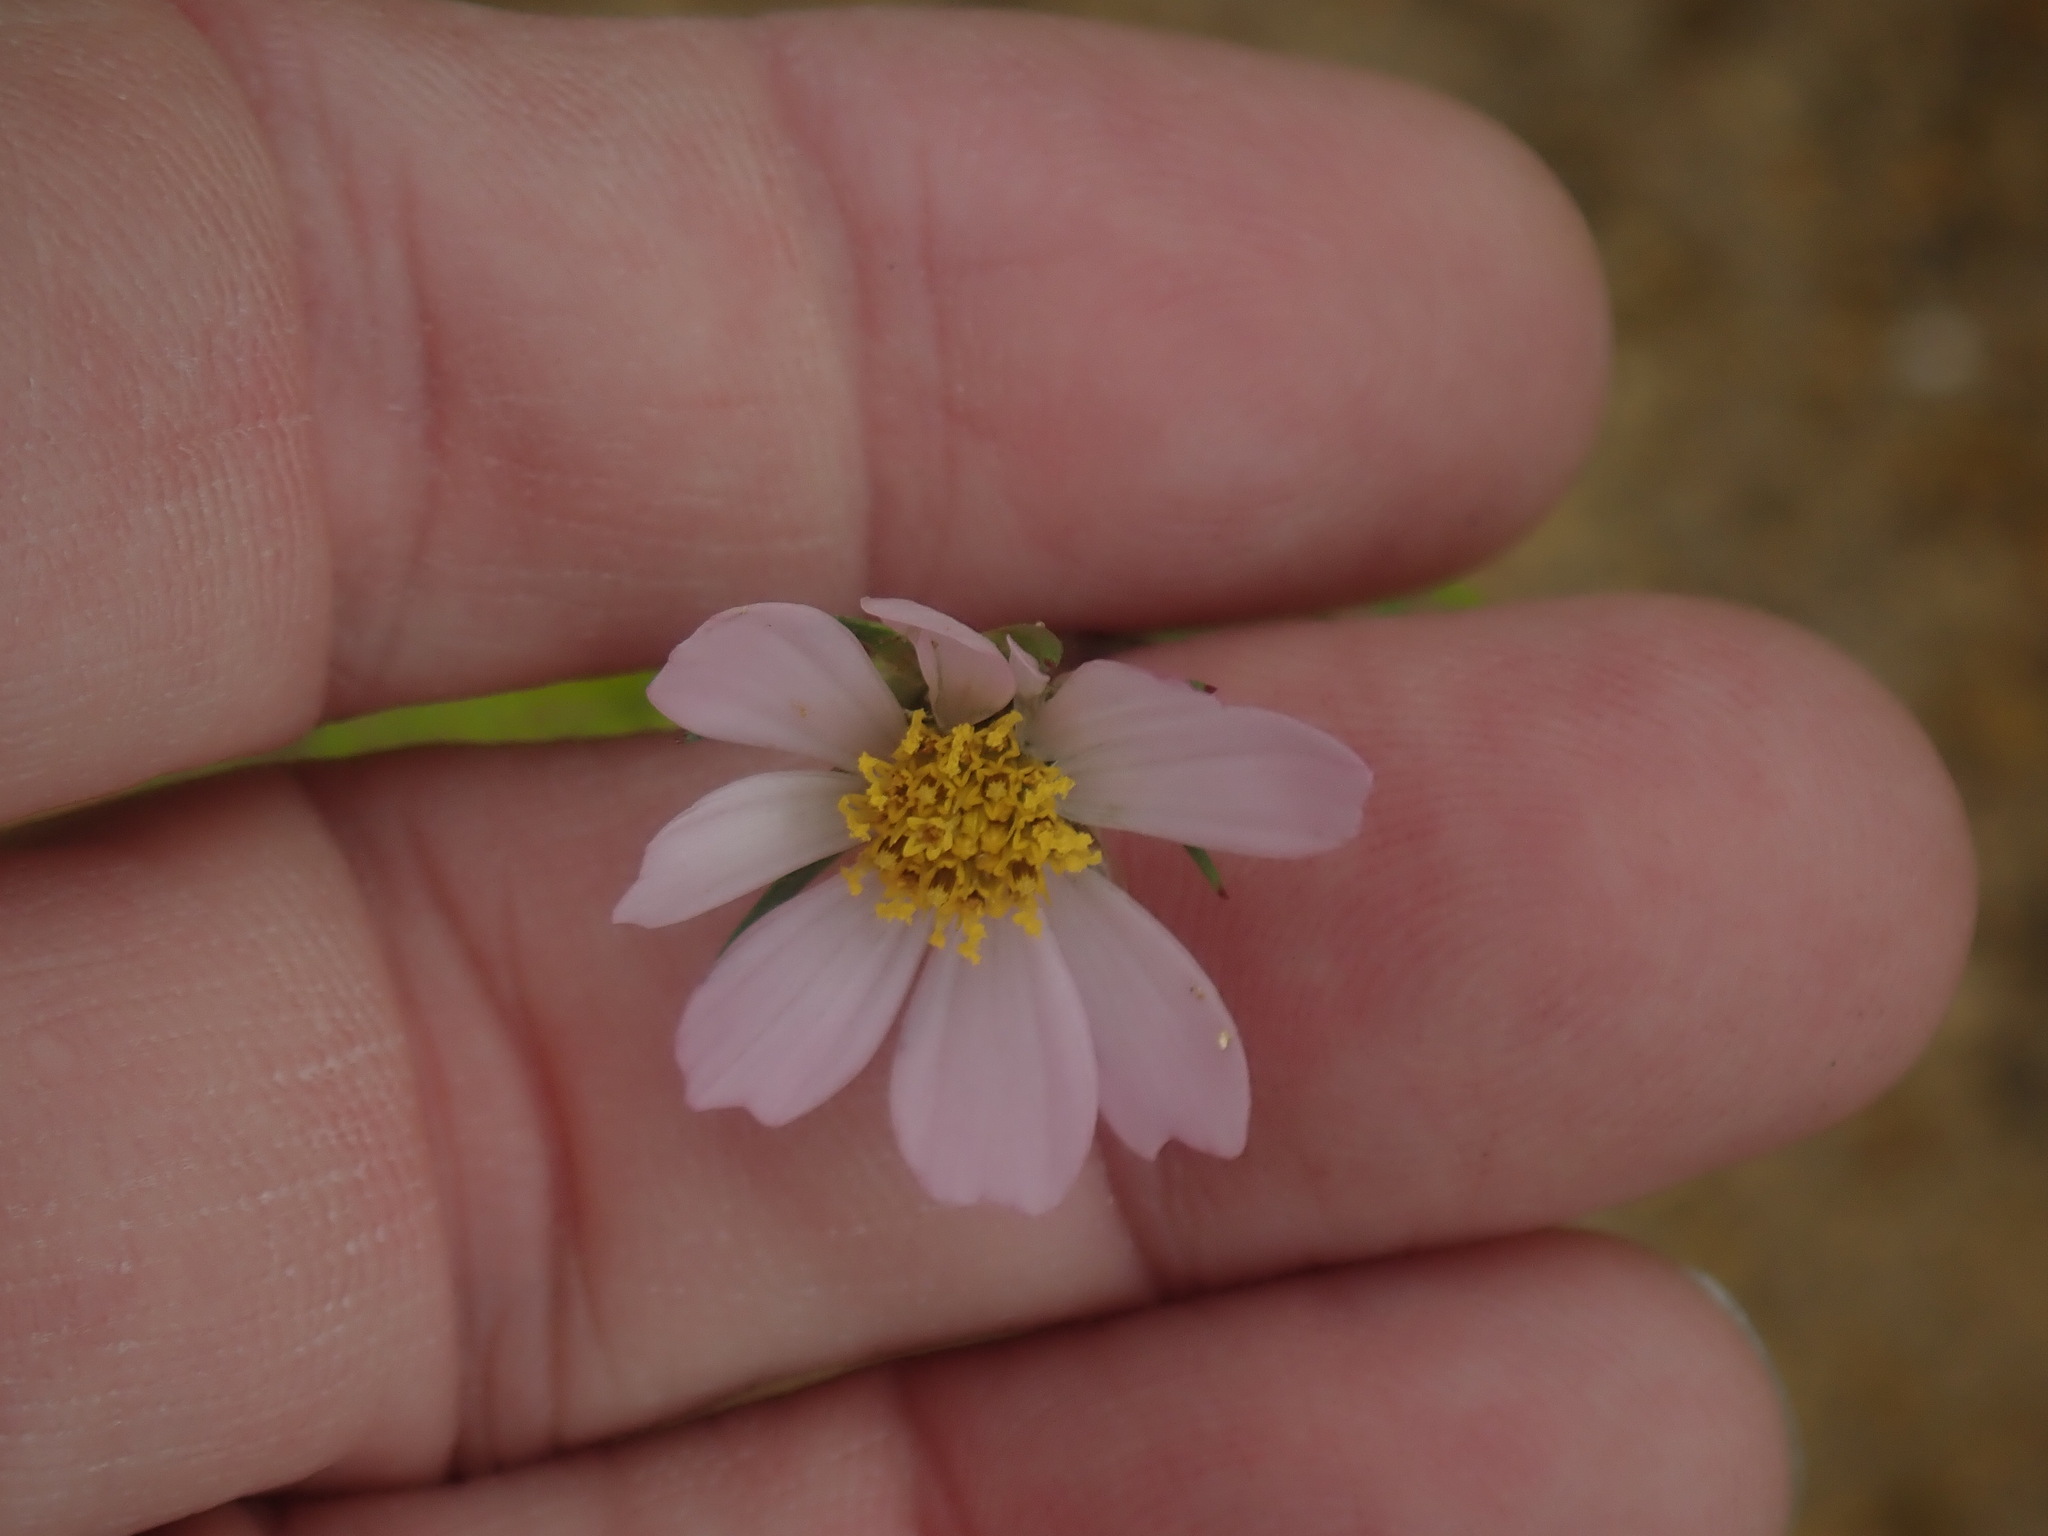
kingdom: Plantae
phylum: Tracheophyta
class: Magnoliopsida
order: Asterales
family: Asteraceae
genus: Cosmos
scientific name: Cosmos parviflorus
